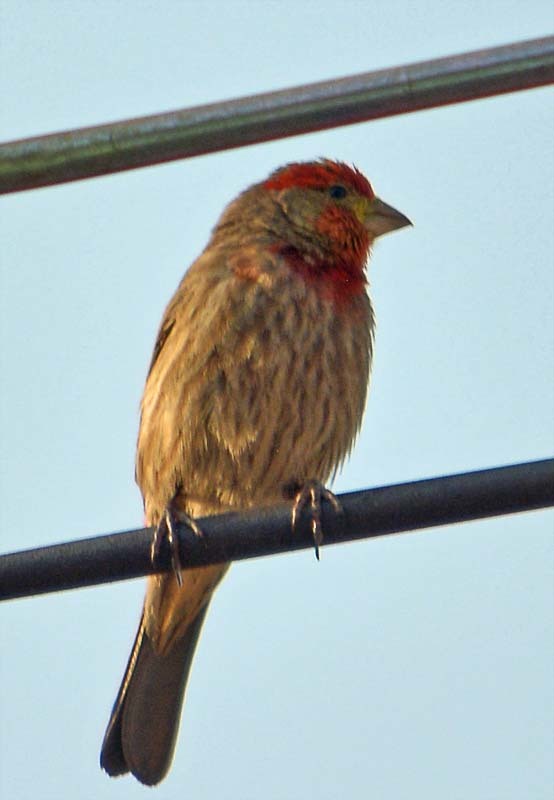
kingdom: Animalia
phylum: Chordata
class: Aves
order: Passeriformes
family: Fringillidae
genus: Haemorhous
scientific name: Haemorhous mexicanus
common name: House finch
